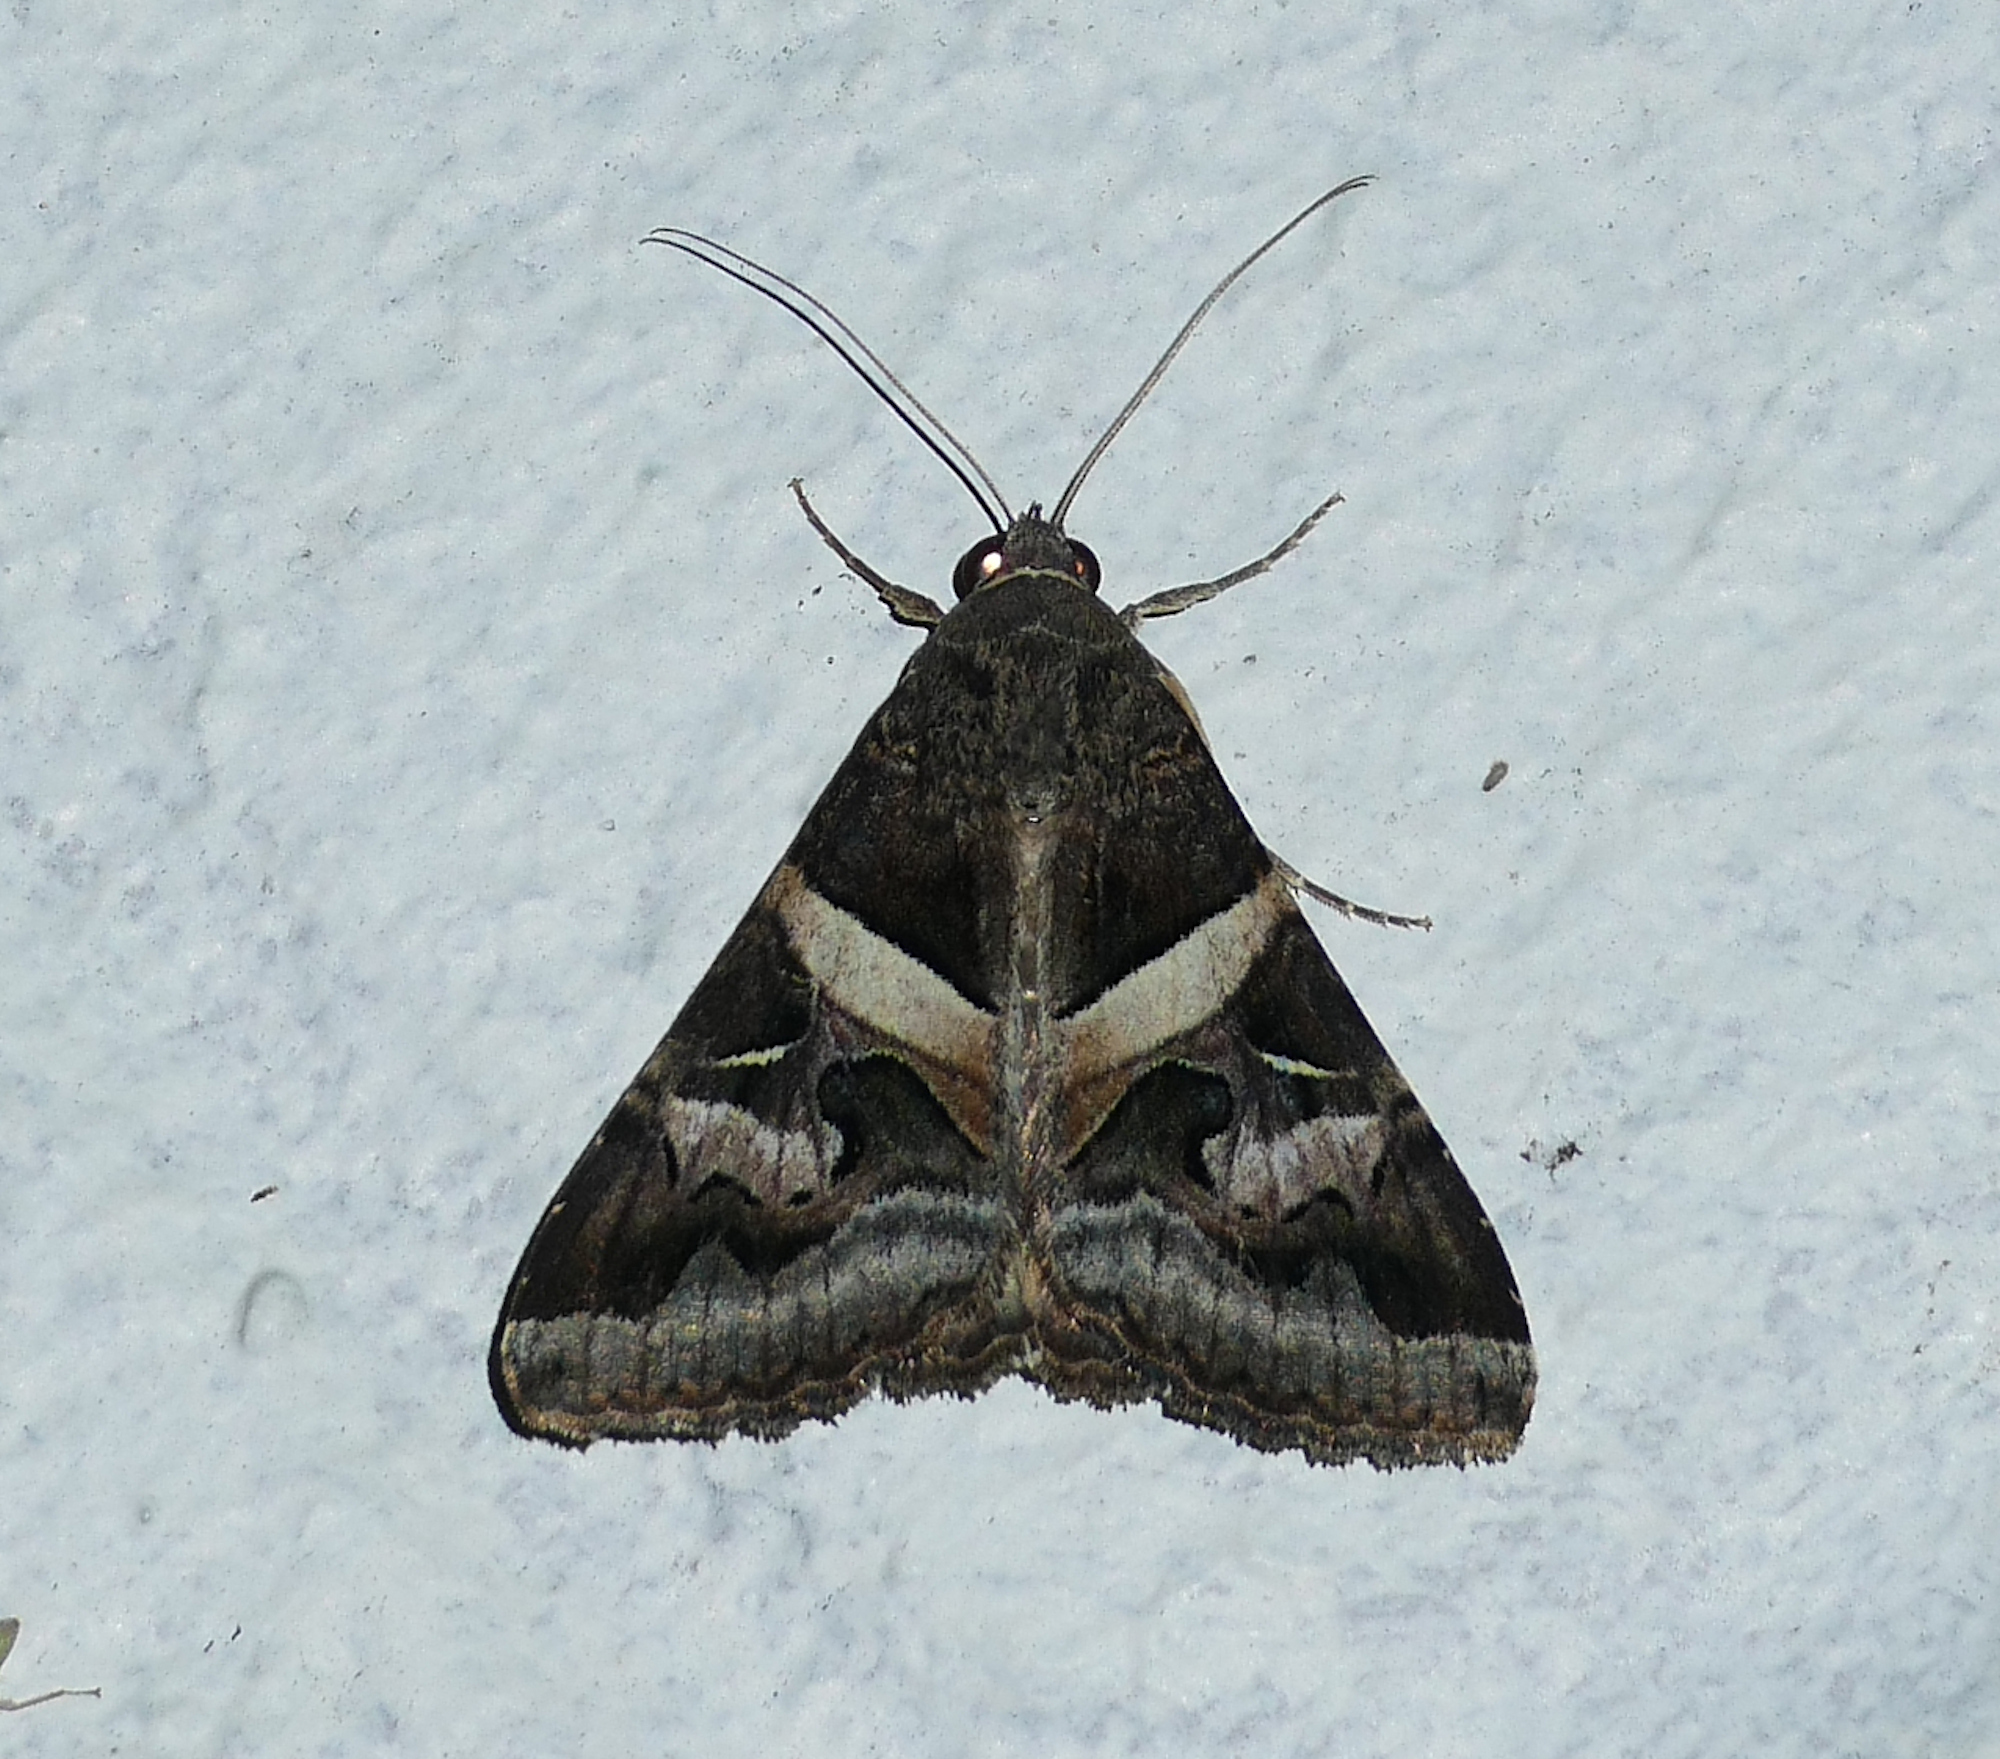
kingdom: Animalia
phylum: Arthropoda
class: Insecta
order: Lepidoptera
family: Erebidae
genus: Melipotis
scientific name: Melipotis indomita
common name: Moth
